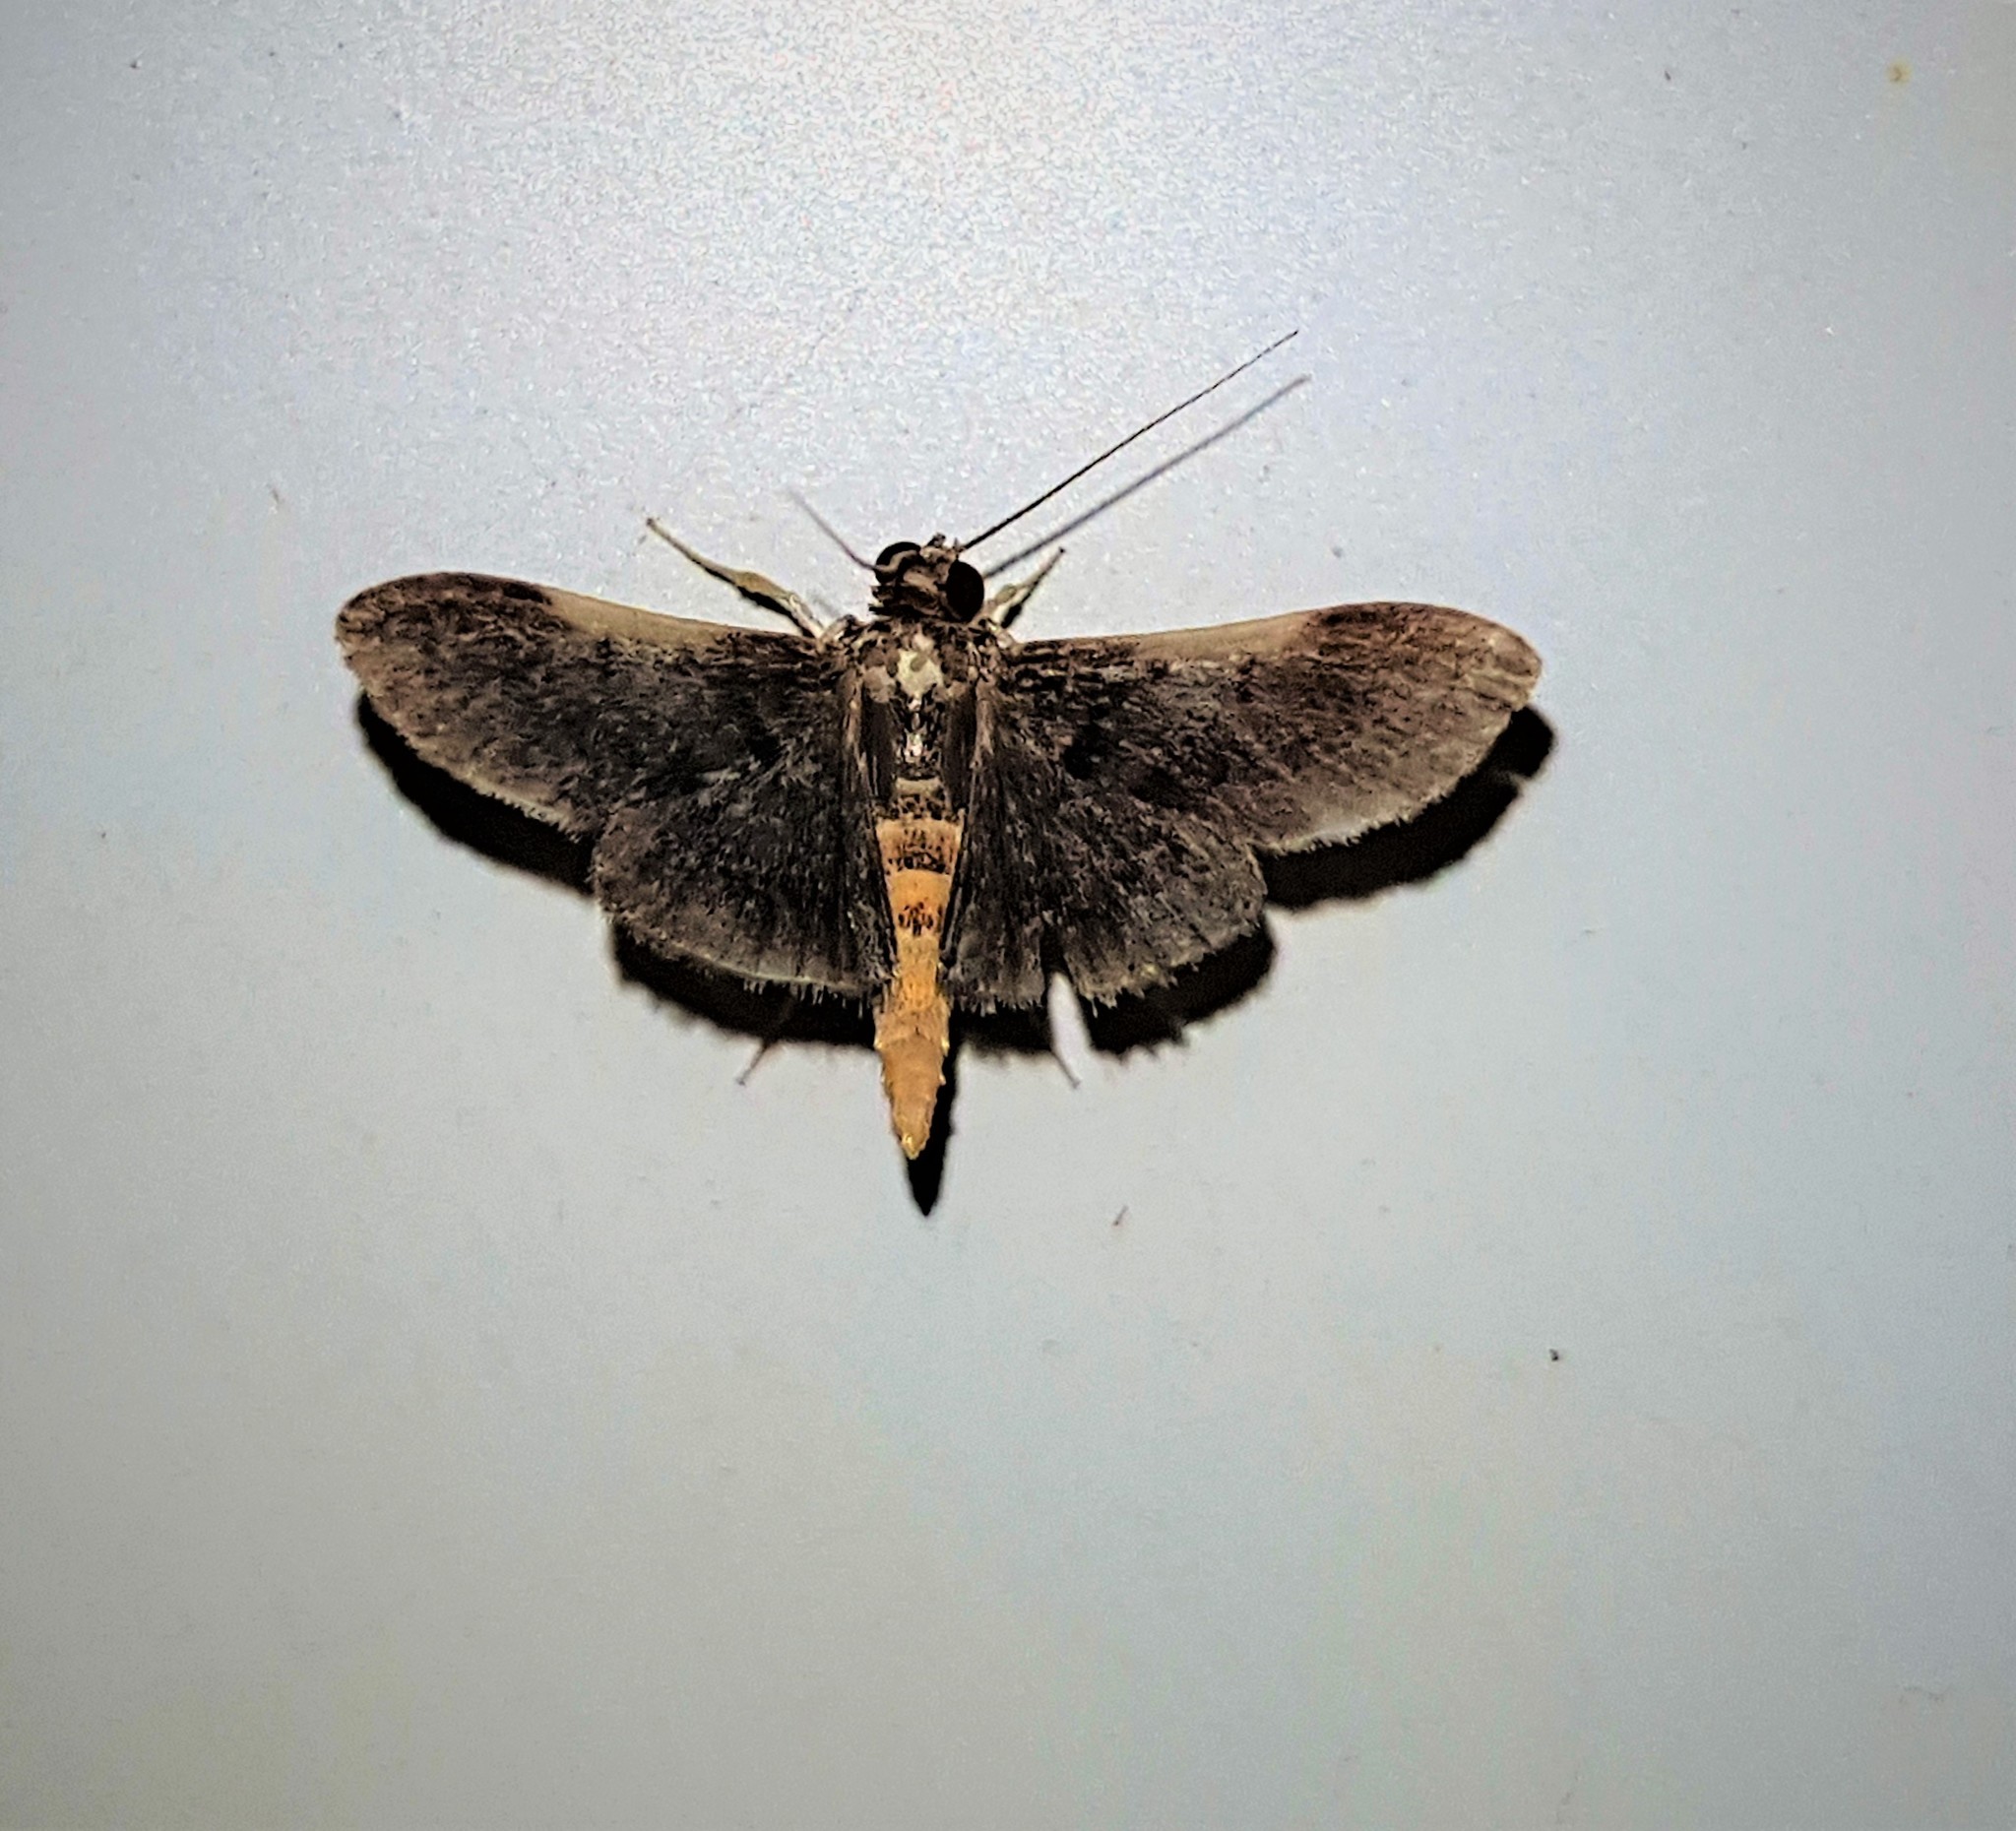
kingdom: Animalia
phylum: Arthropoda
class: Insecta
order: Lepidoptera
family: Crambidae
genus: Omiodes
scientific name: Omiodes pandaralis
